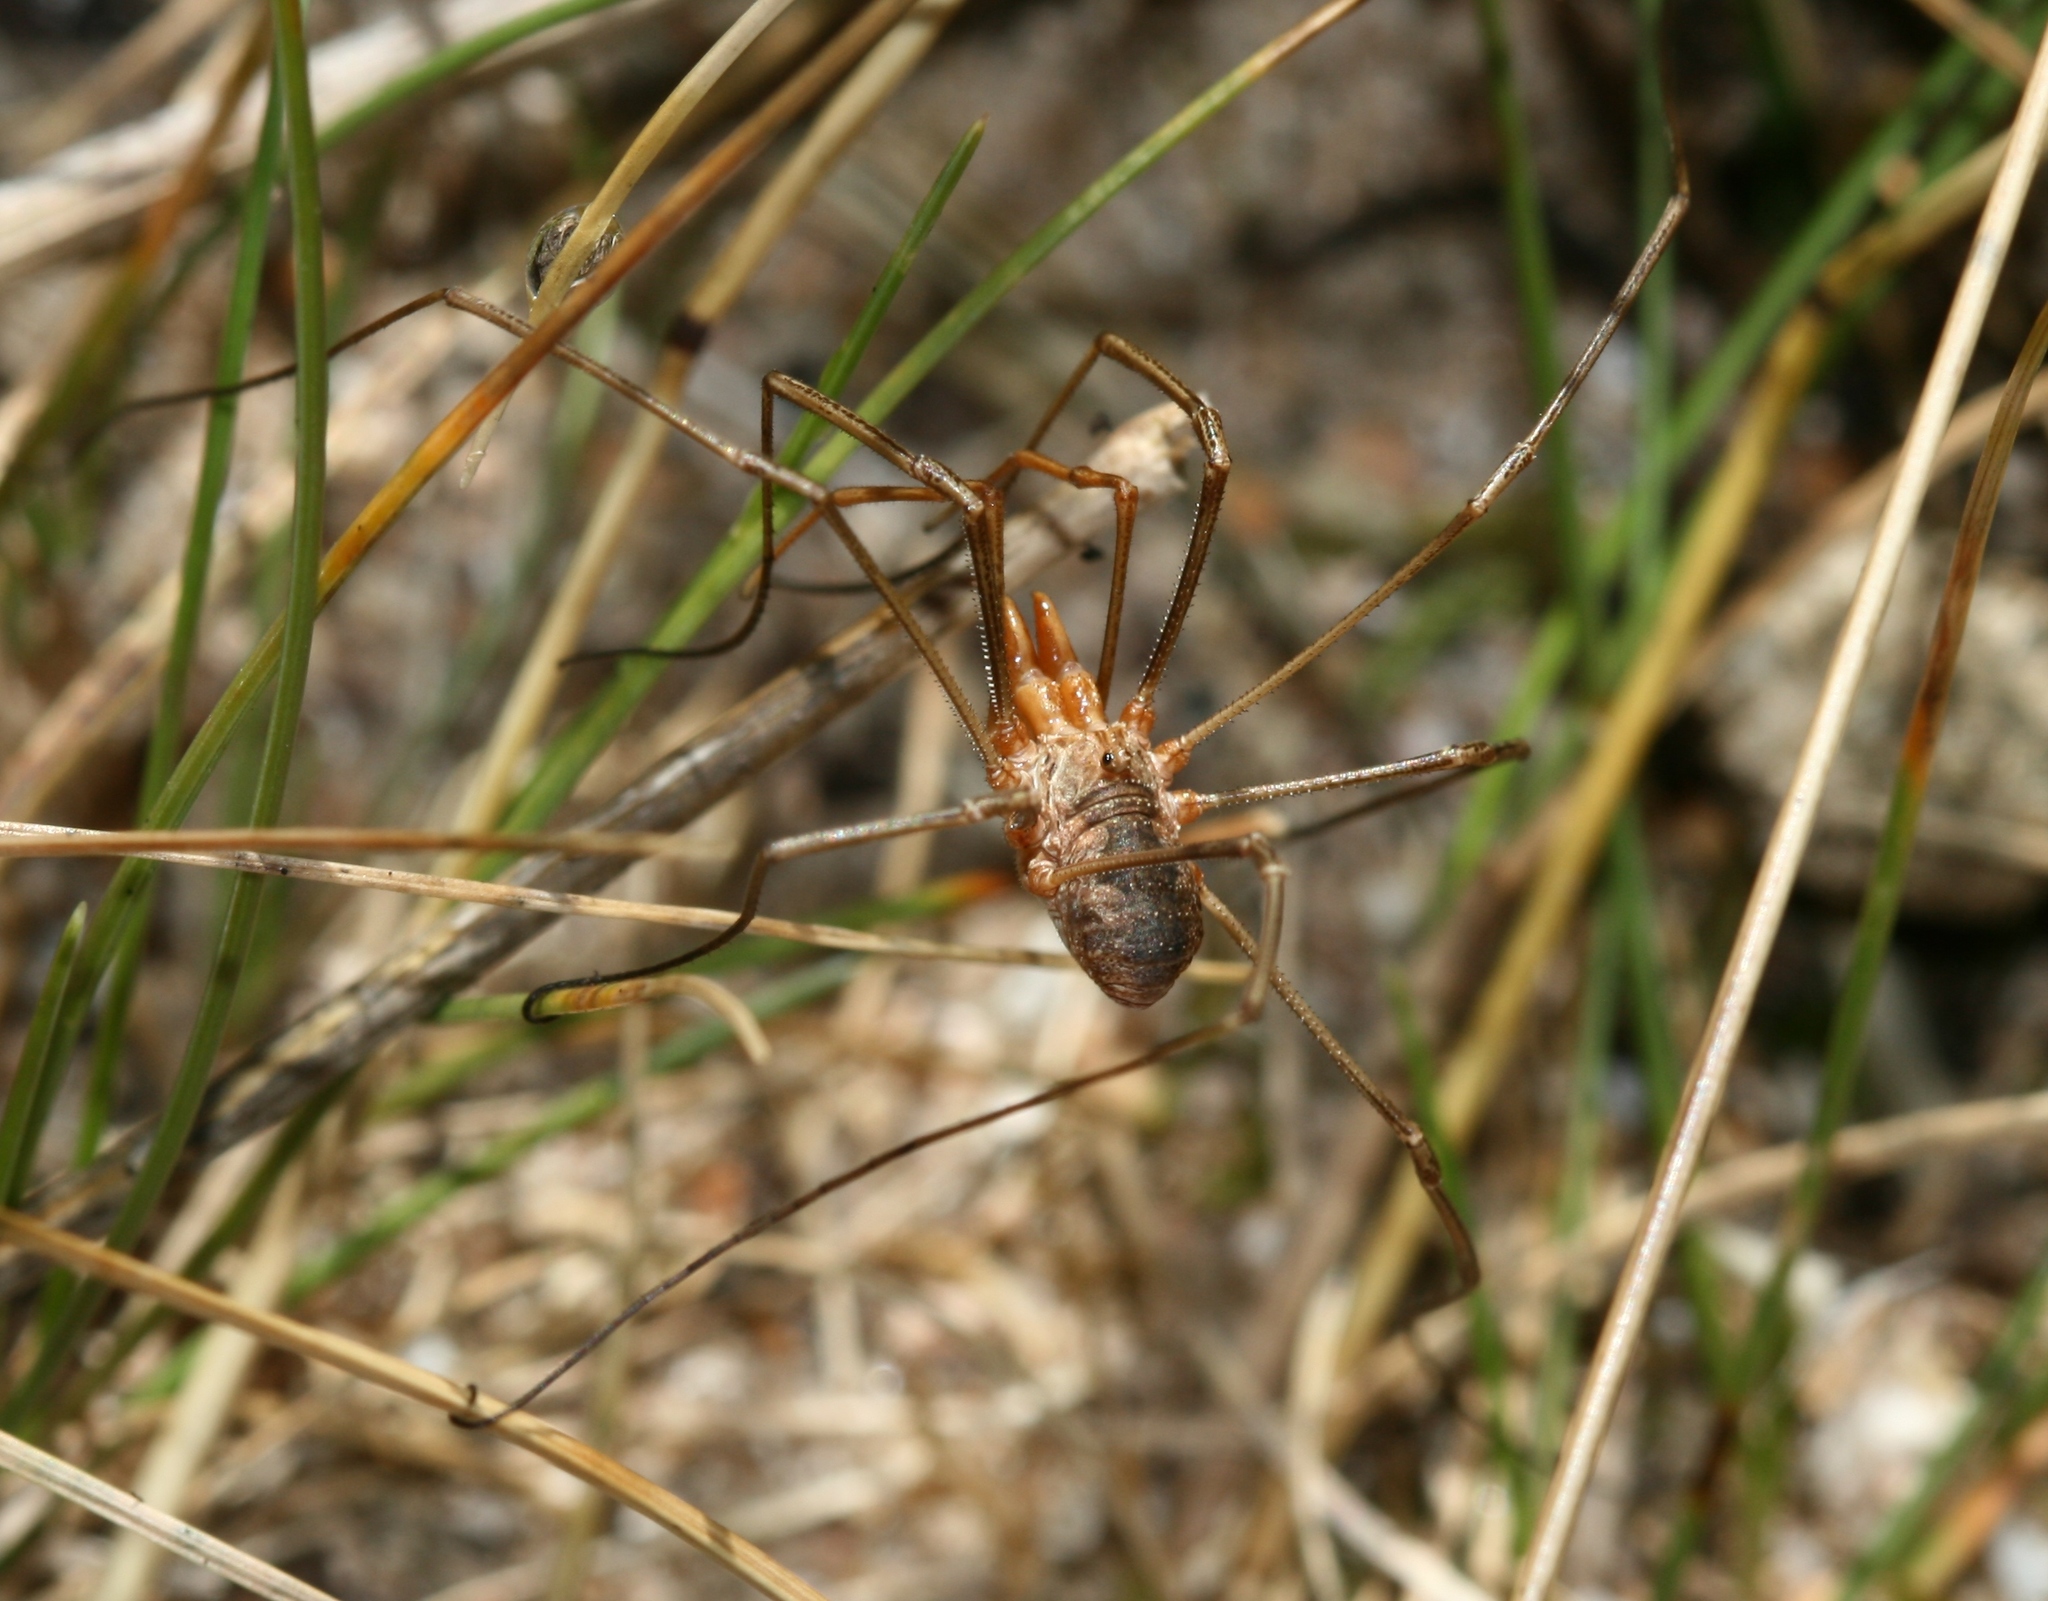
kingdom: Animalia
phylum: Arthropoda
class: Arachnida
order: Opiliones
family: Phalangiidae
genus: Phalangium
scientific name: Phalangium opilio
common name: Daddy longleg
